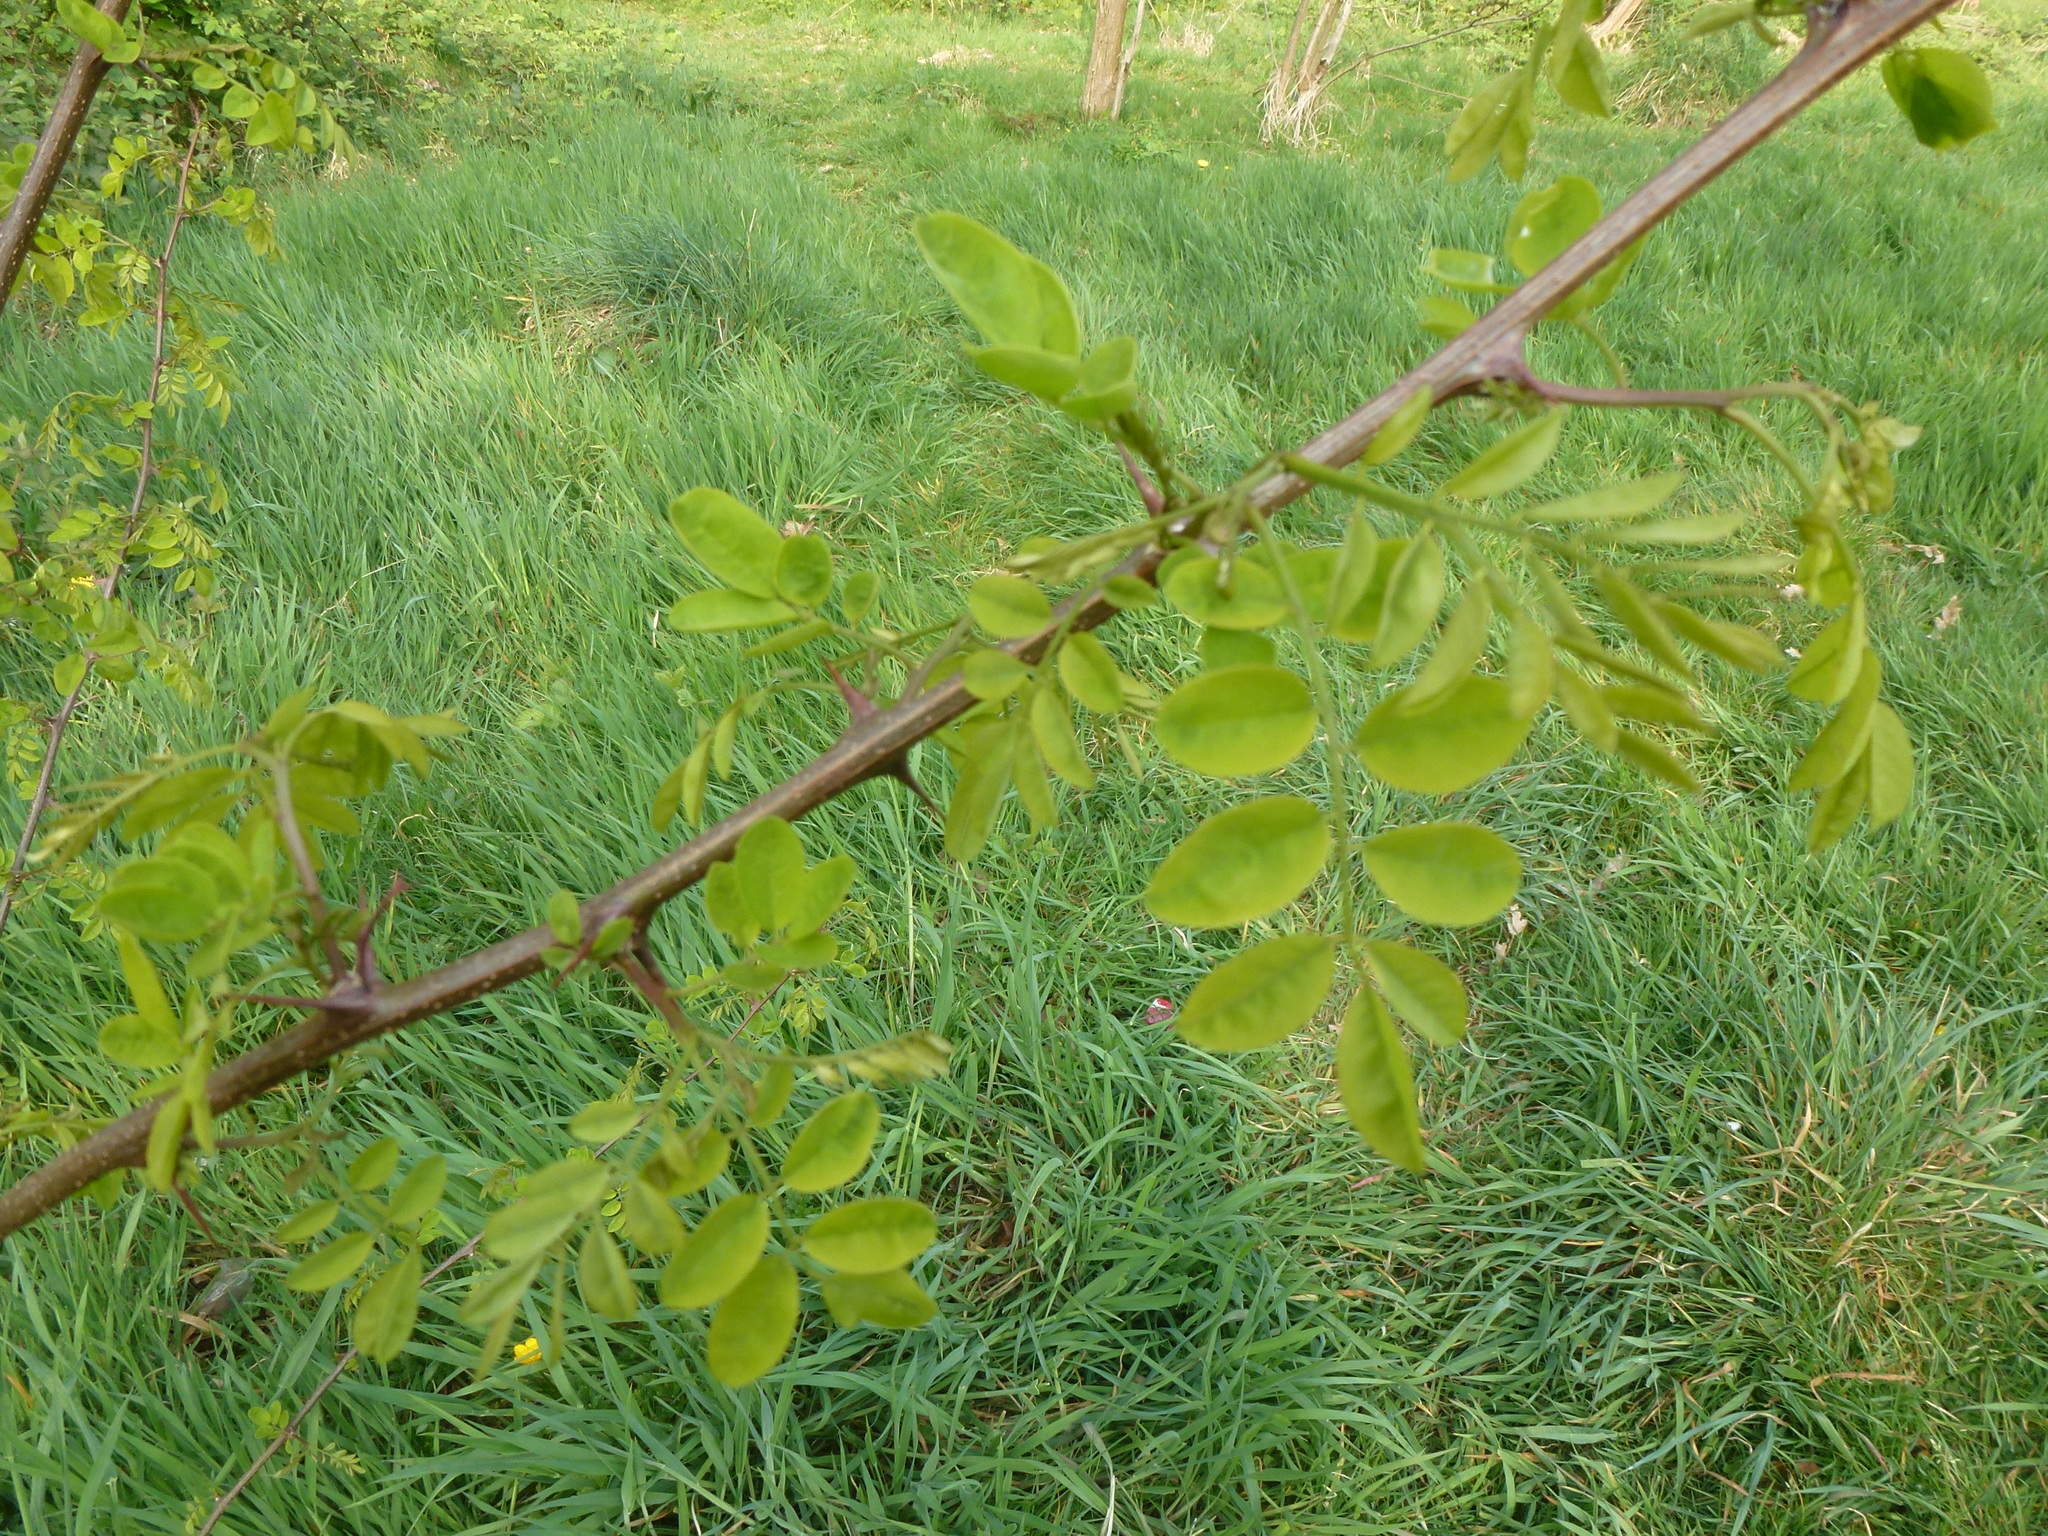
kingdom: Plantae
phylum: Tracheophyta
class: Magnoliopsida
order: Fabales
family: Fabaceae
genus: Robinia
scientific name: Robinia pseudoacacia
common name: Black locust
